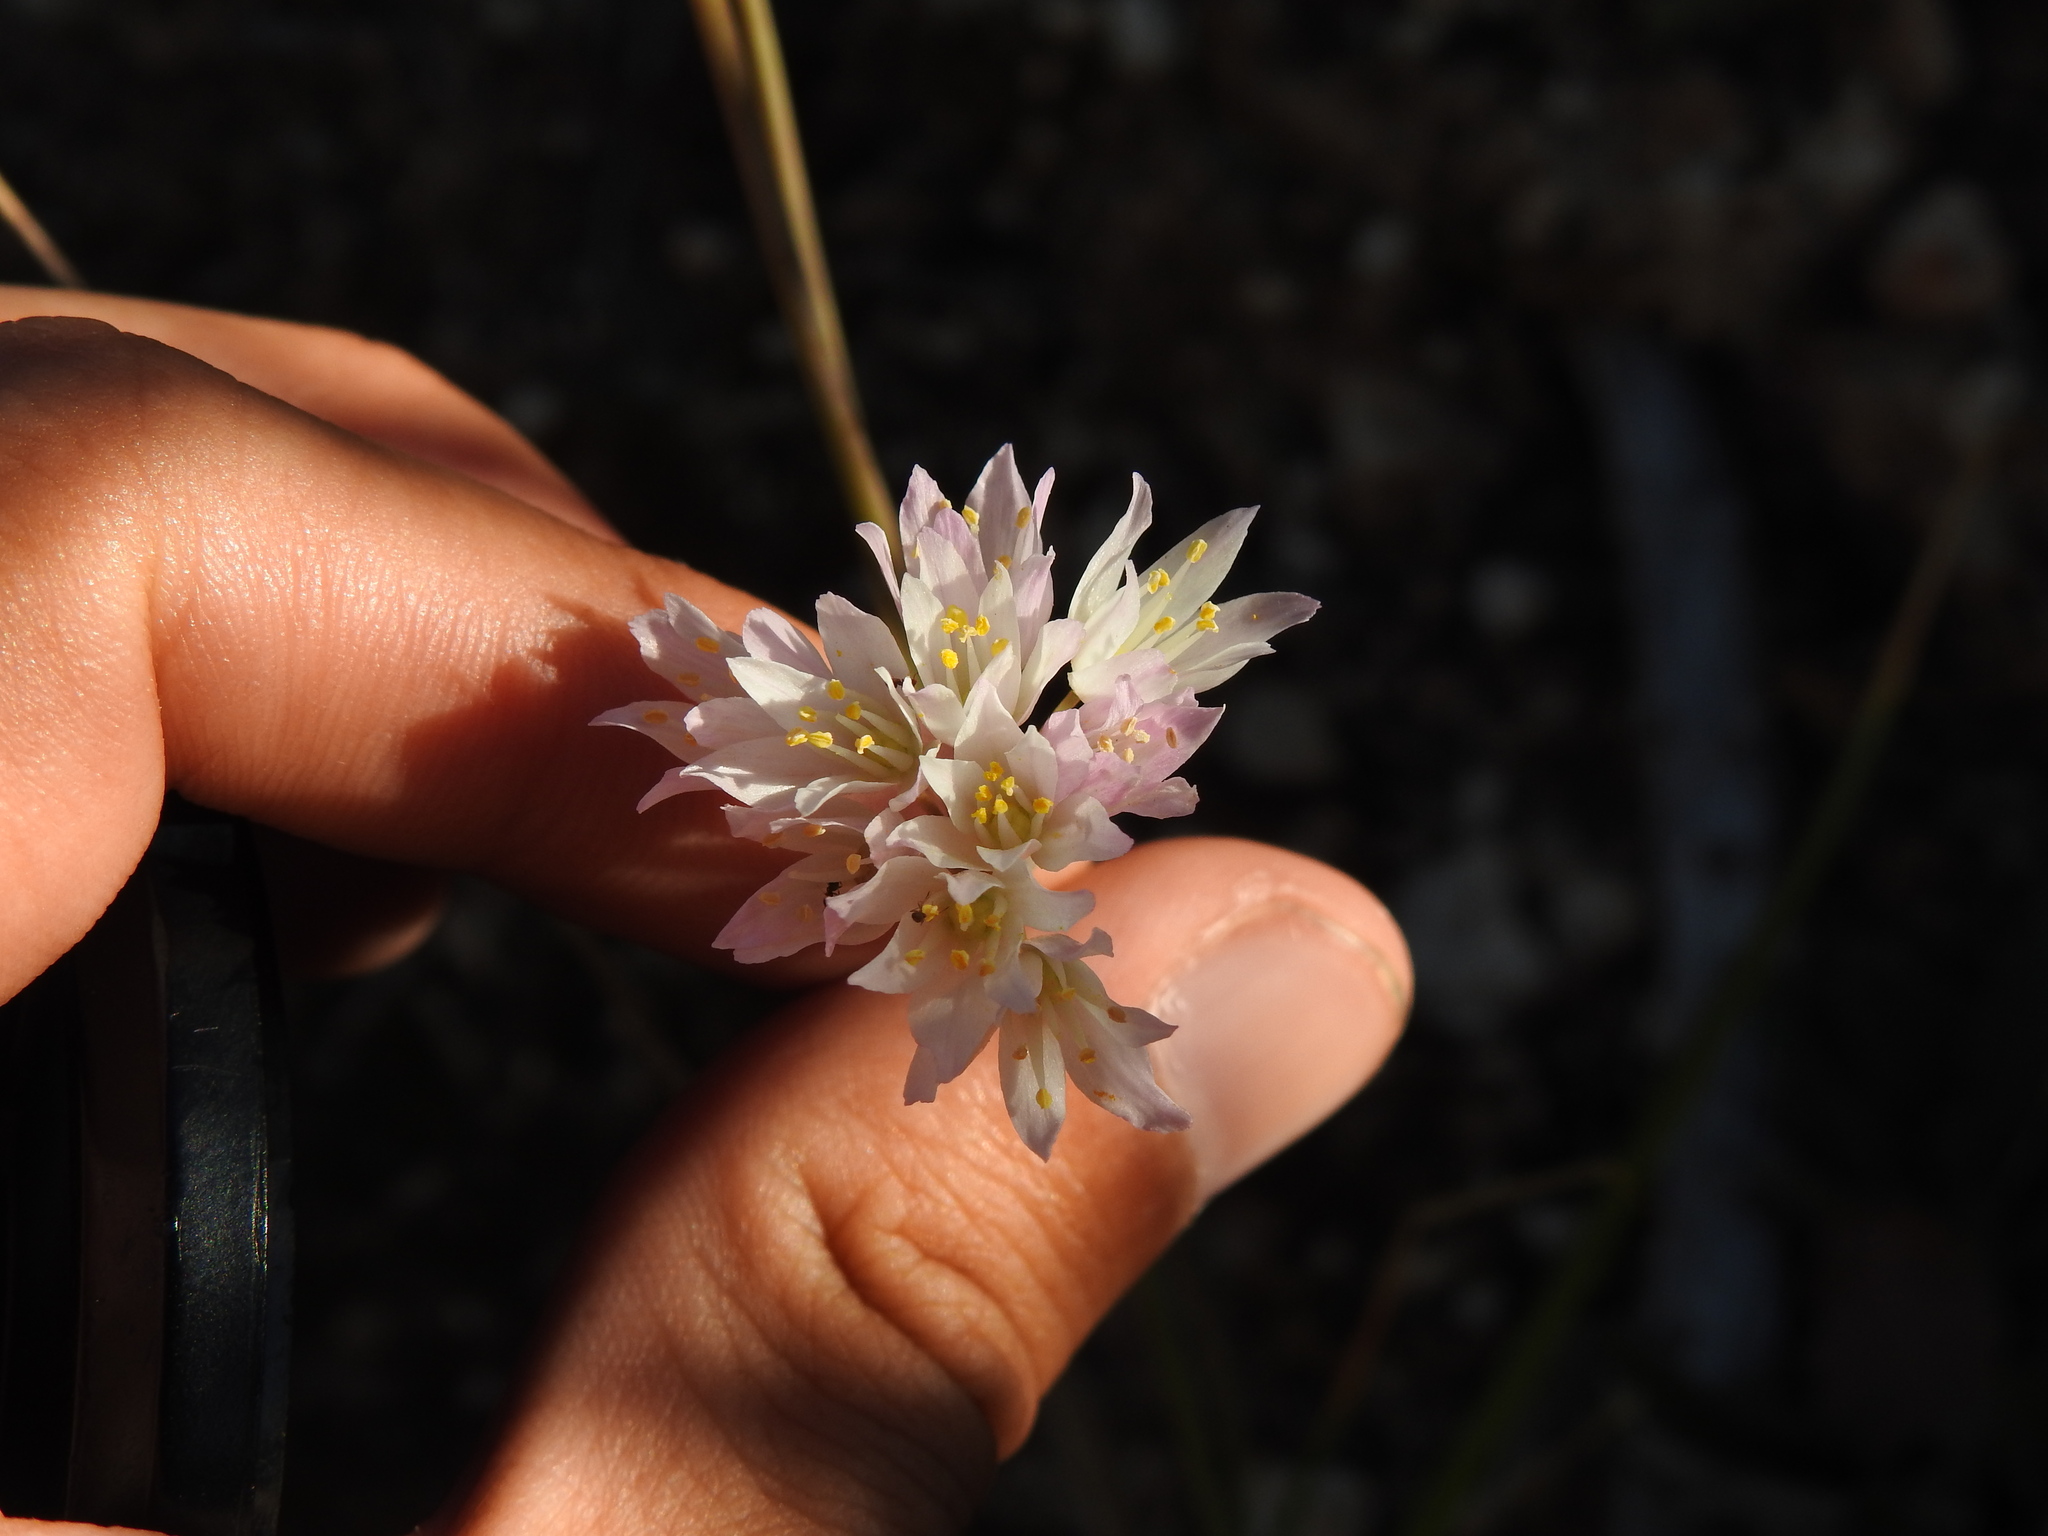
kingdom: Plantae
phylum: Tracheophyta
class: Liliopsida
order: Asparagales
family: Amaryllidaceae
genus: Allium
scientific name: Allium roseum
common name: Rosy garlic
